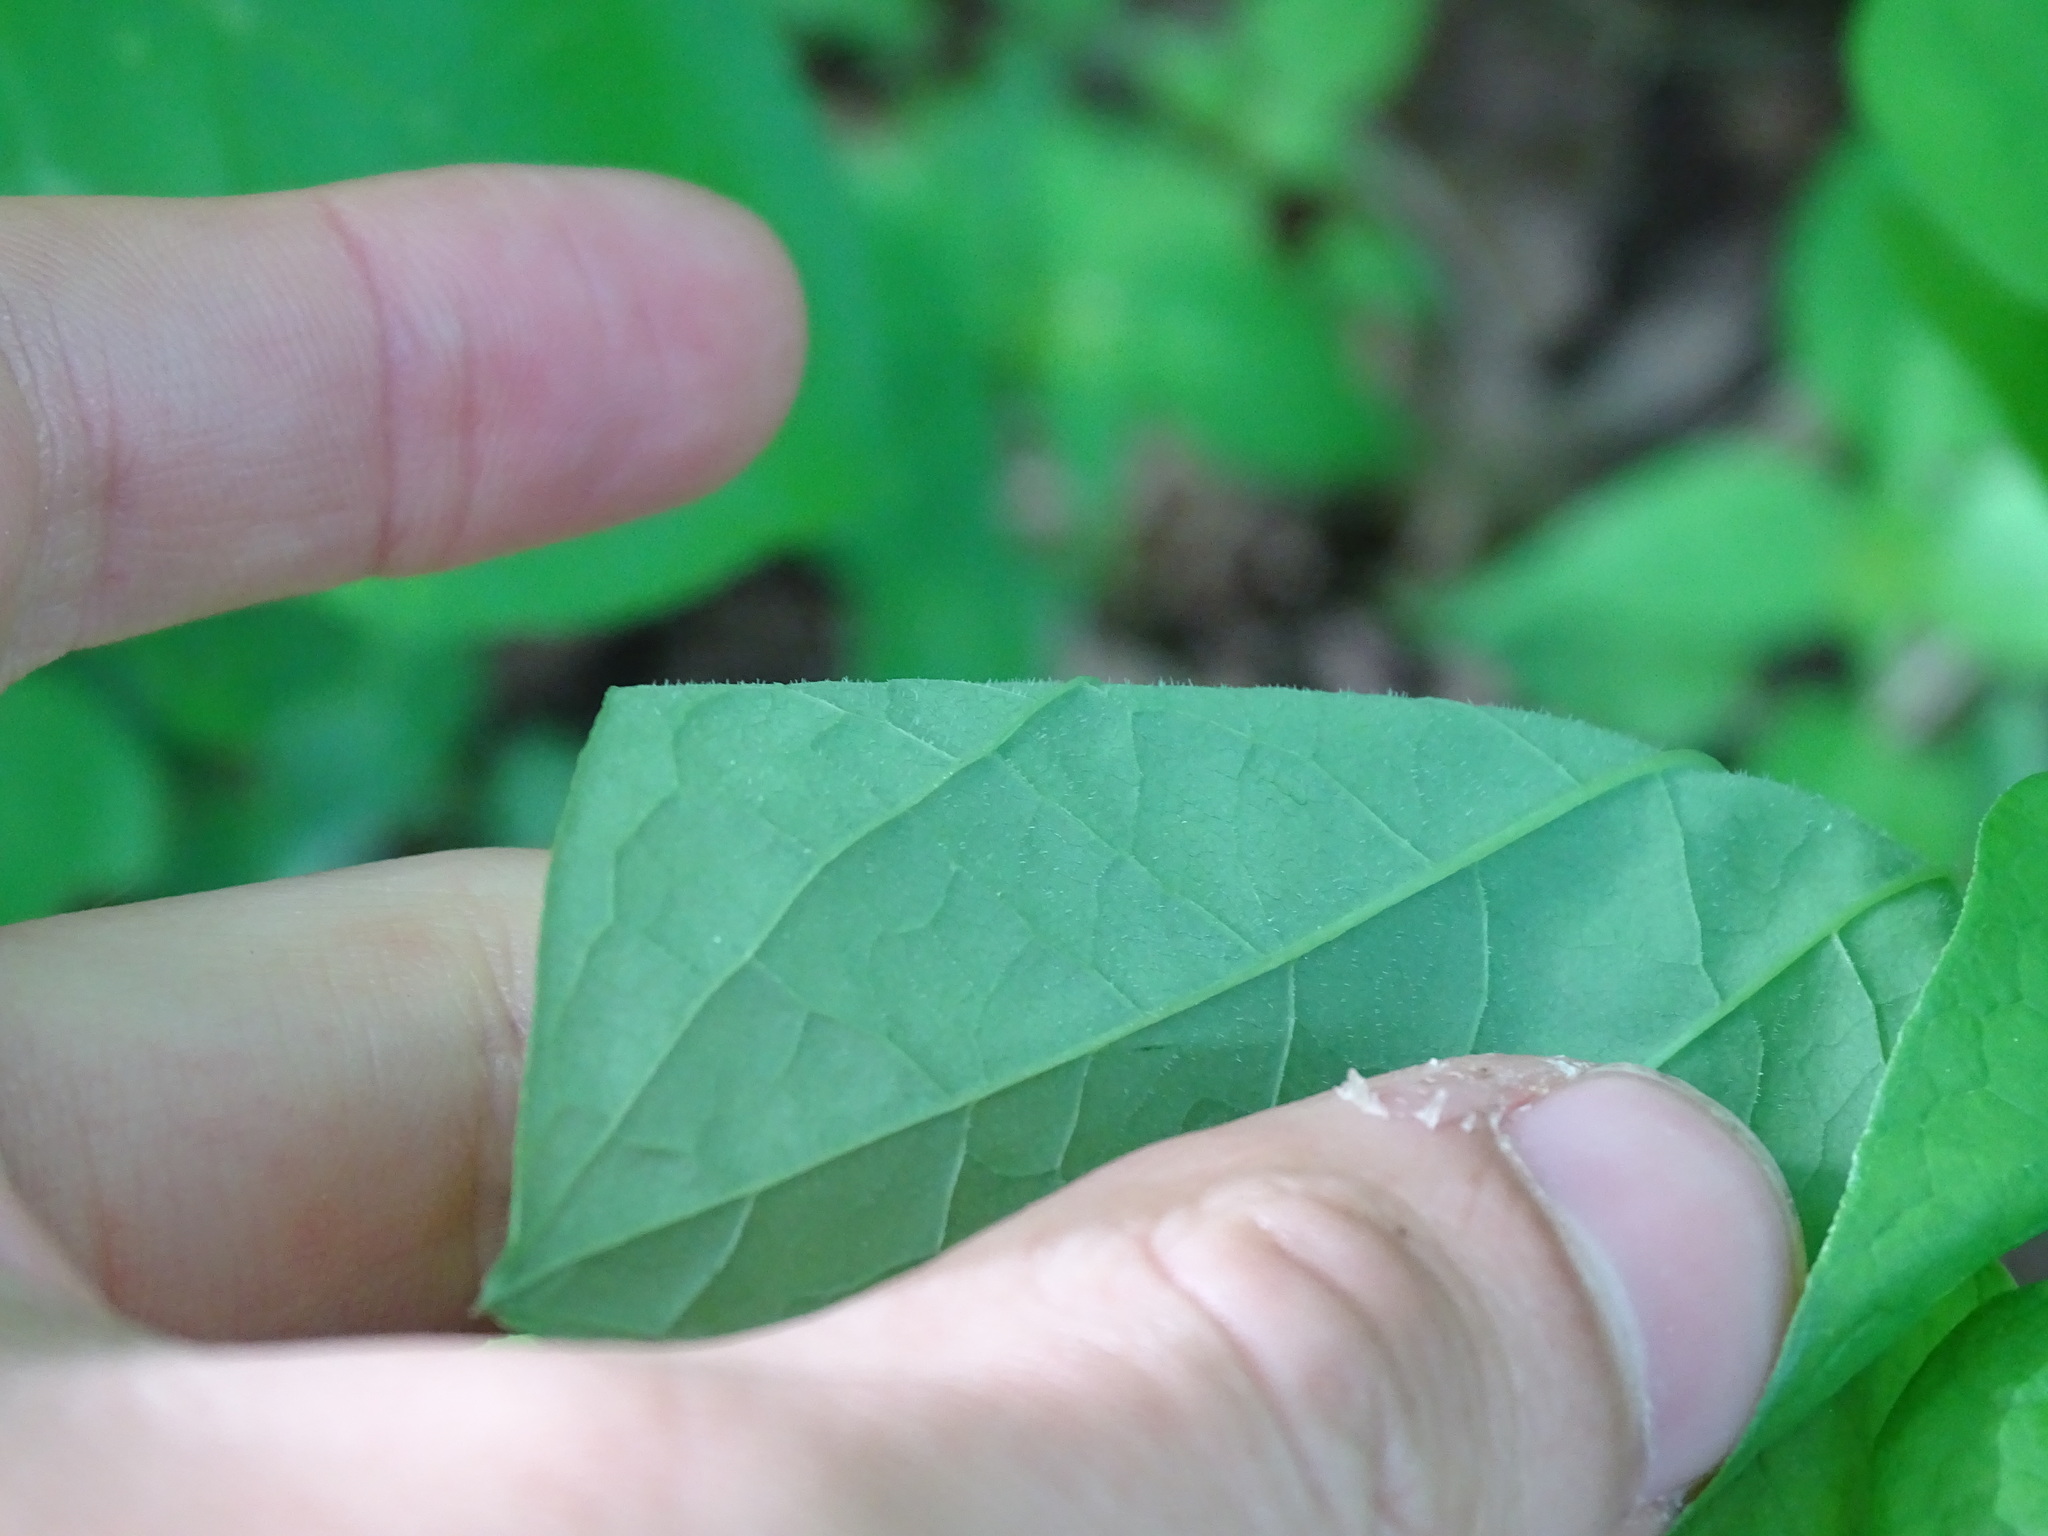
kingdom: Plantae
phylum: Tracheophyta
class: Liliopsida
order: Liliales
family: Smilacaceae
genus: Smilax
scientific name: Smilax lasioneura
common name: Blue ridge carrionflower
